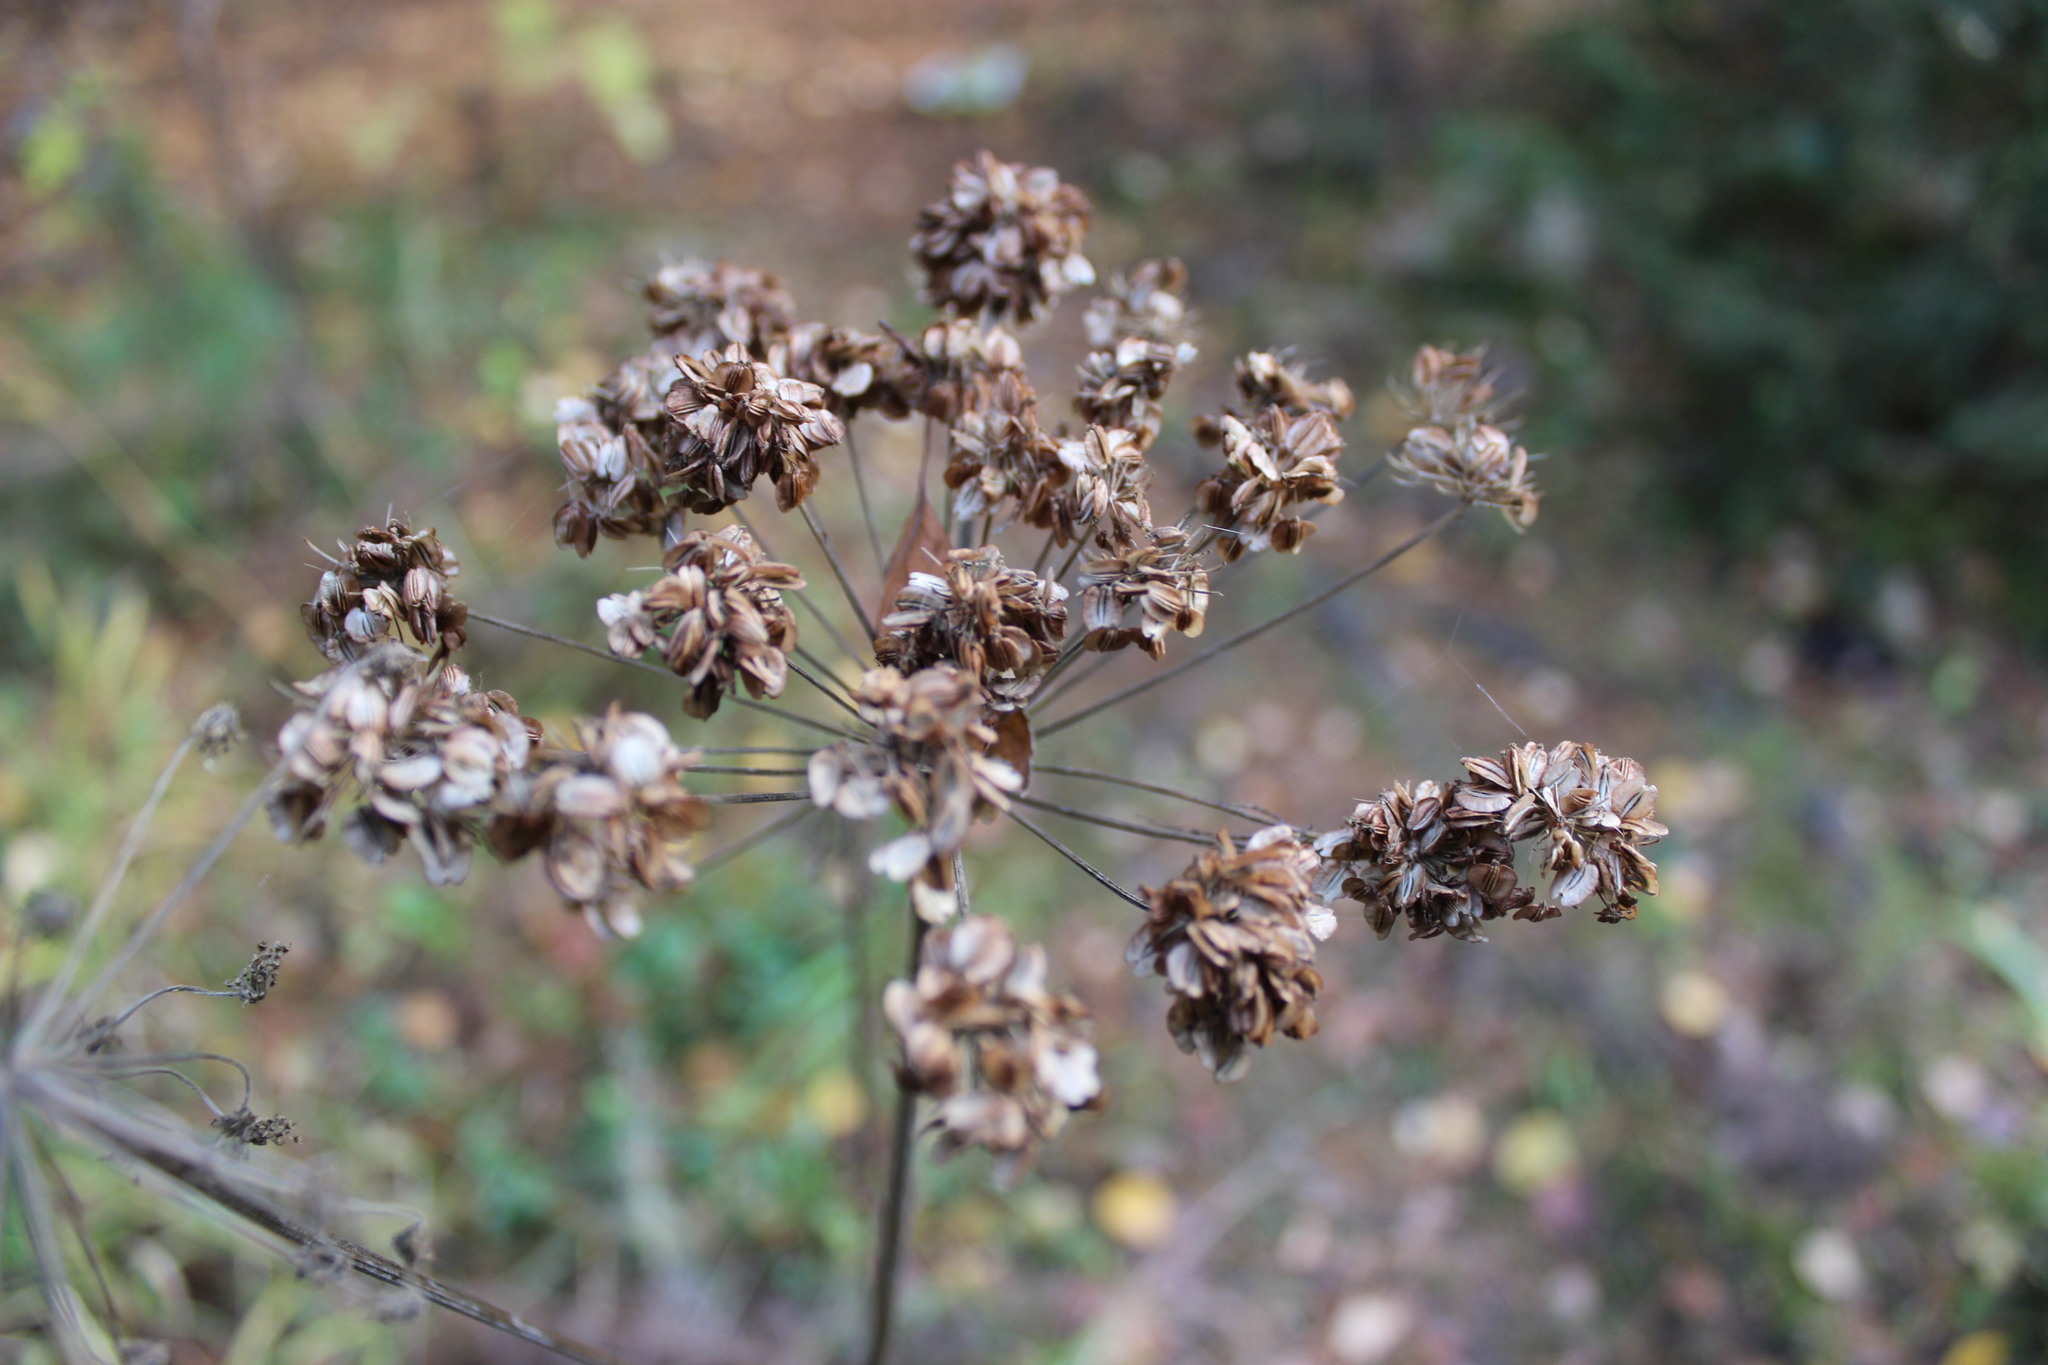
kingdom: Plantae
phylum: Tracheophyta
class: Magnoliopsida
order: Apiales
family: Apiaceae
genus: Angelica
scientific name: Angelica sylvestris
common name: Wild angelica
